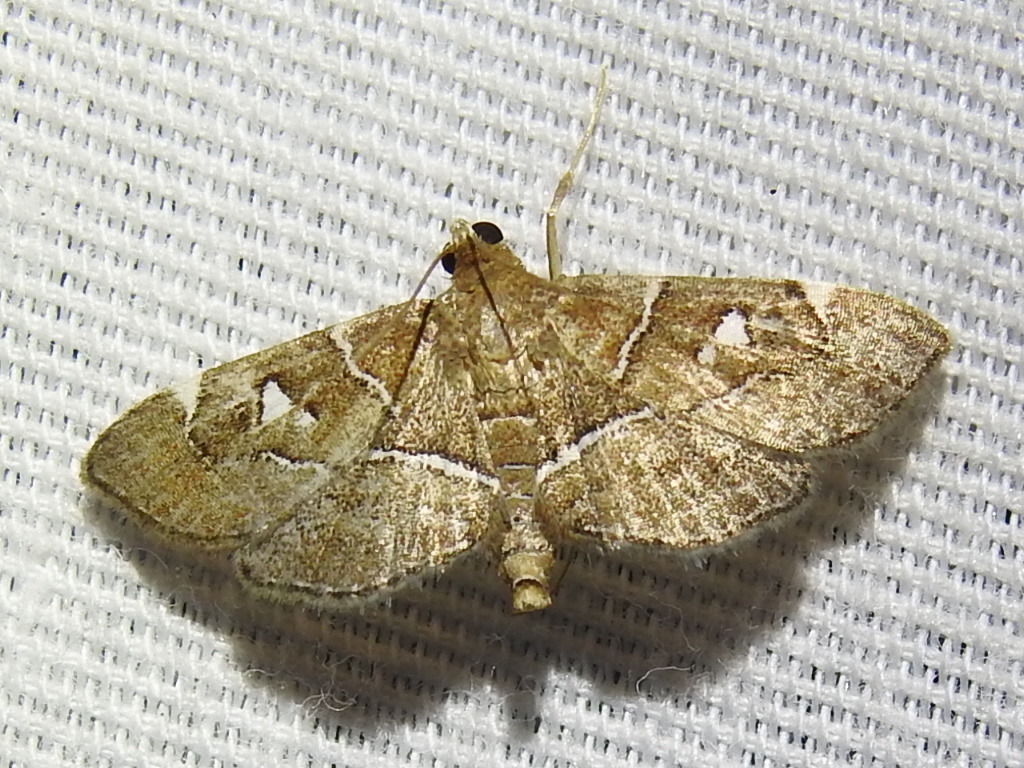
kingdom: Animalia
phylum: Arthropoda
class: Insecta
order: Lepidoptera
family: Crambidae
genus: Lamprosema
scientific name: Lamprosema victoriae
